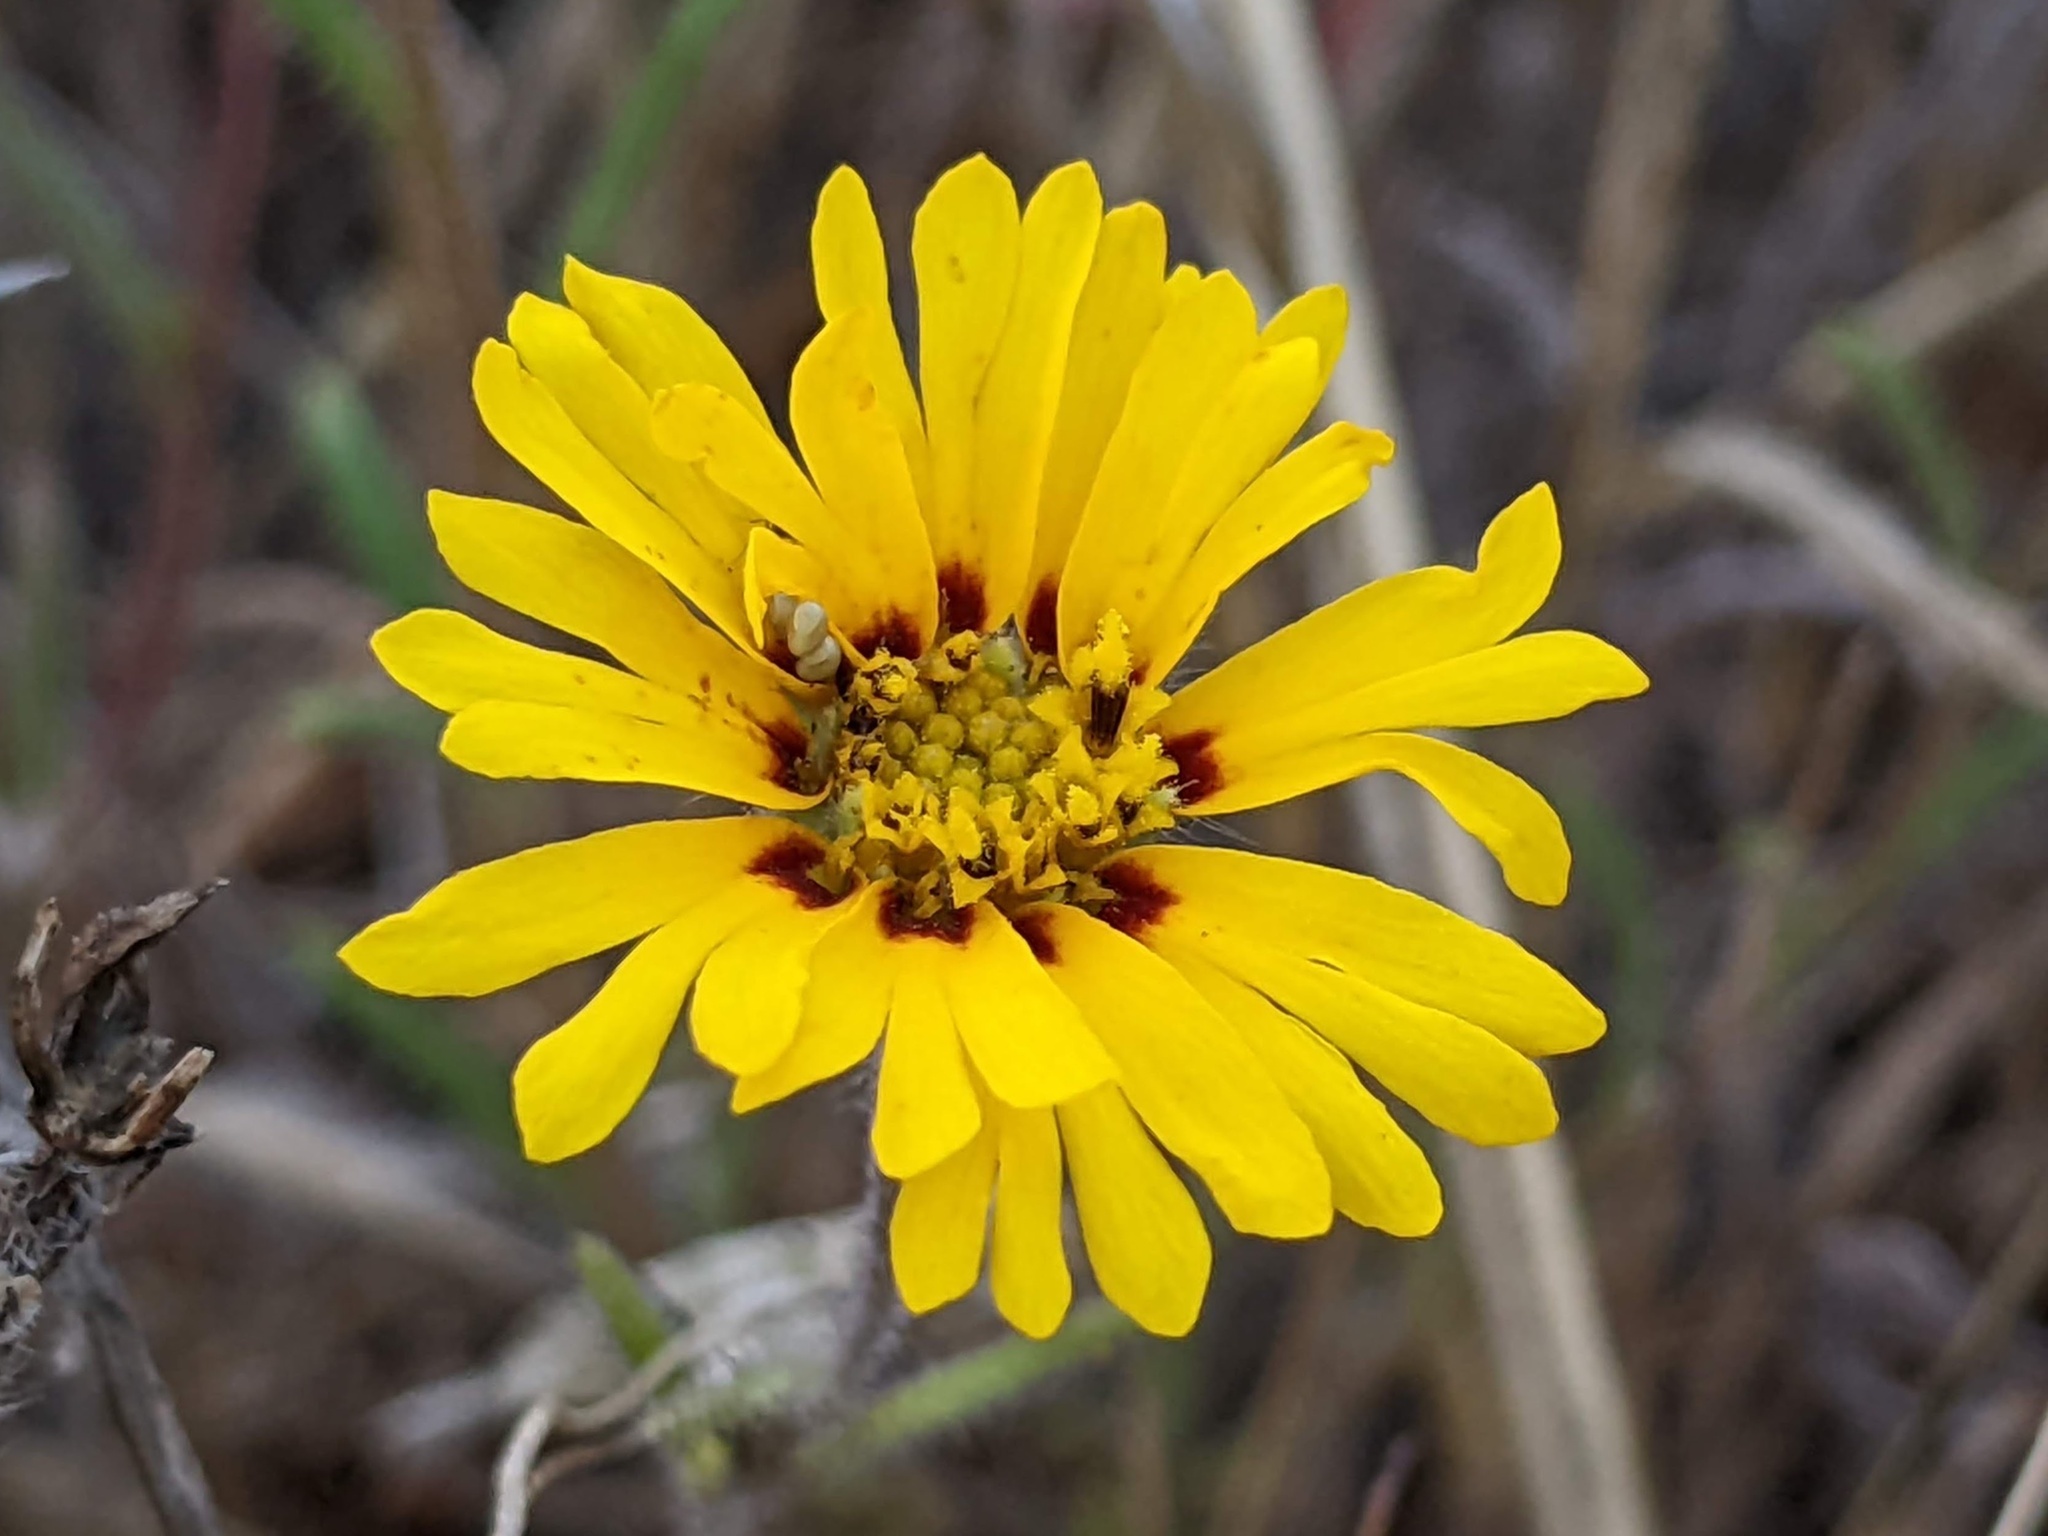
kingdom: Plantae
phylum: Tracheophyta
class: Magnoliopsida
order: Asterales
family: Asteraceae
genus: Madia
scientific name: Madia elegans
